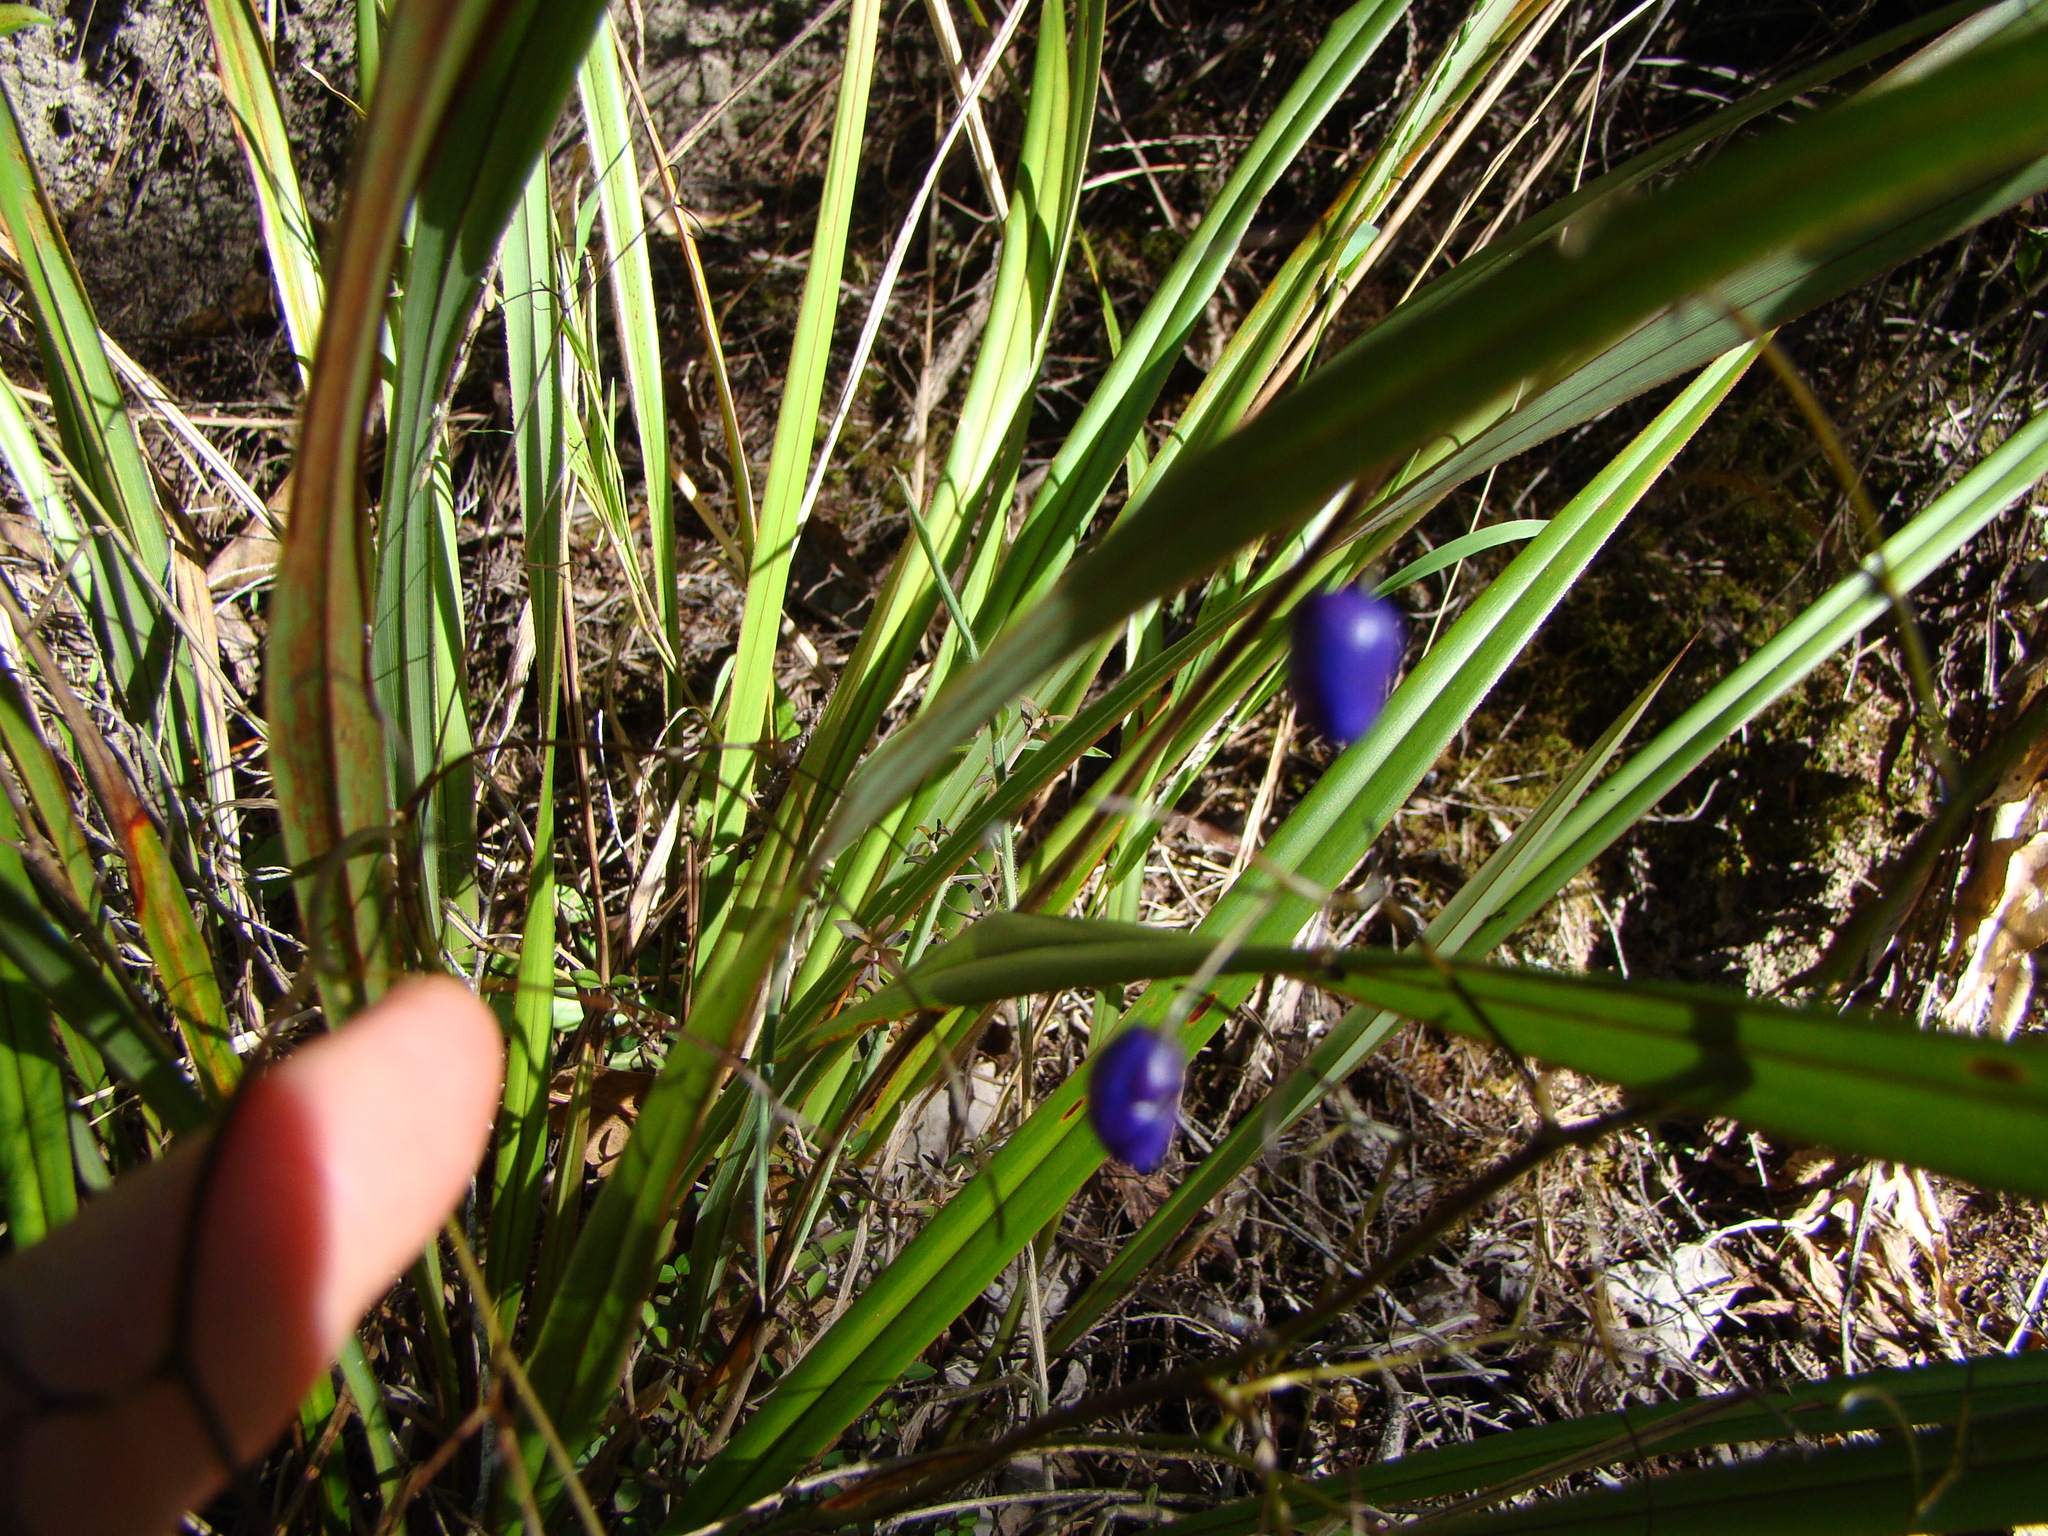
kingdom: Plantae
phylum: Tracheophyta
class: Liliopsida
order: Asparagales
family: Asphodelaceae
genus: Dianella
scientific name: Dianella nigra
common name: New zealand-blueberry
